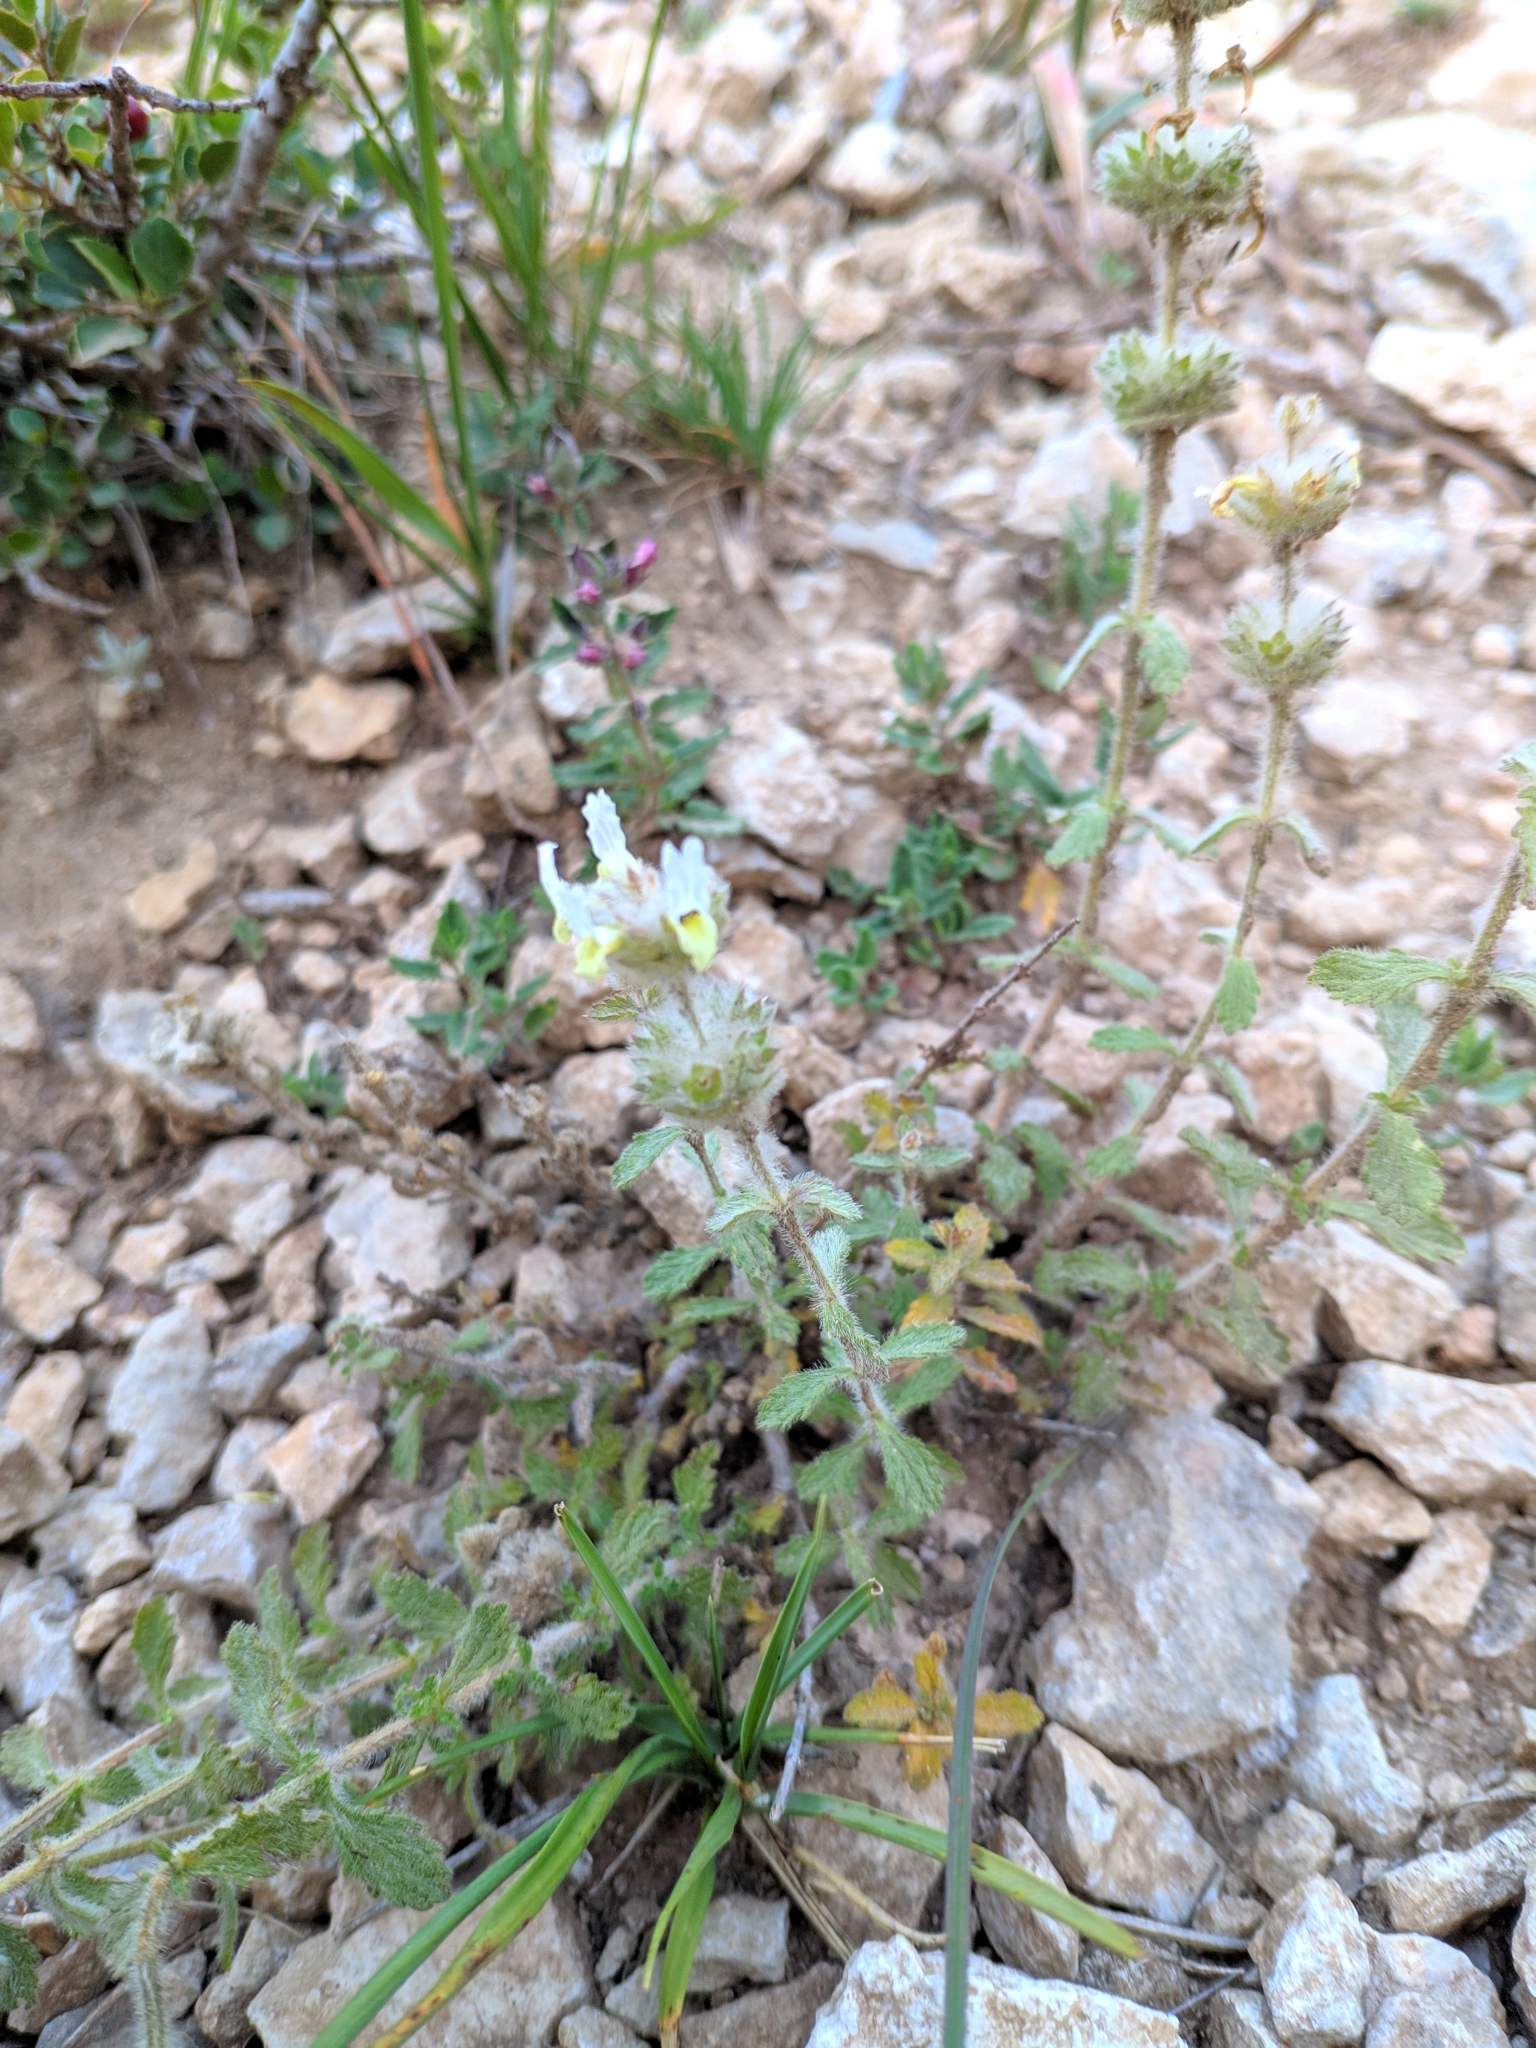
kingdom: Plantae
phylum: Tracheophyta
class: Magnoliopsida
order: Lamiales
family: Lamiaceae
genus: Sideritis
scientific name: Sideritis hirsuta
